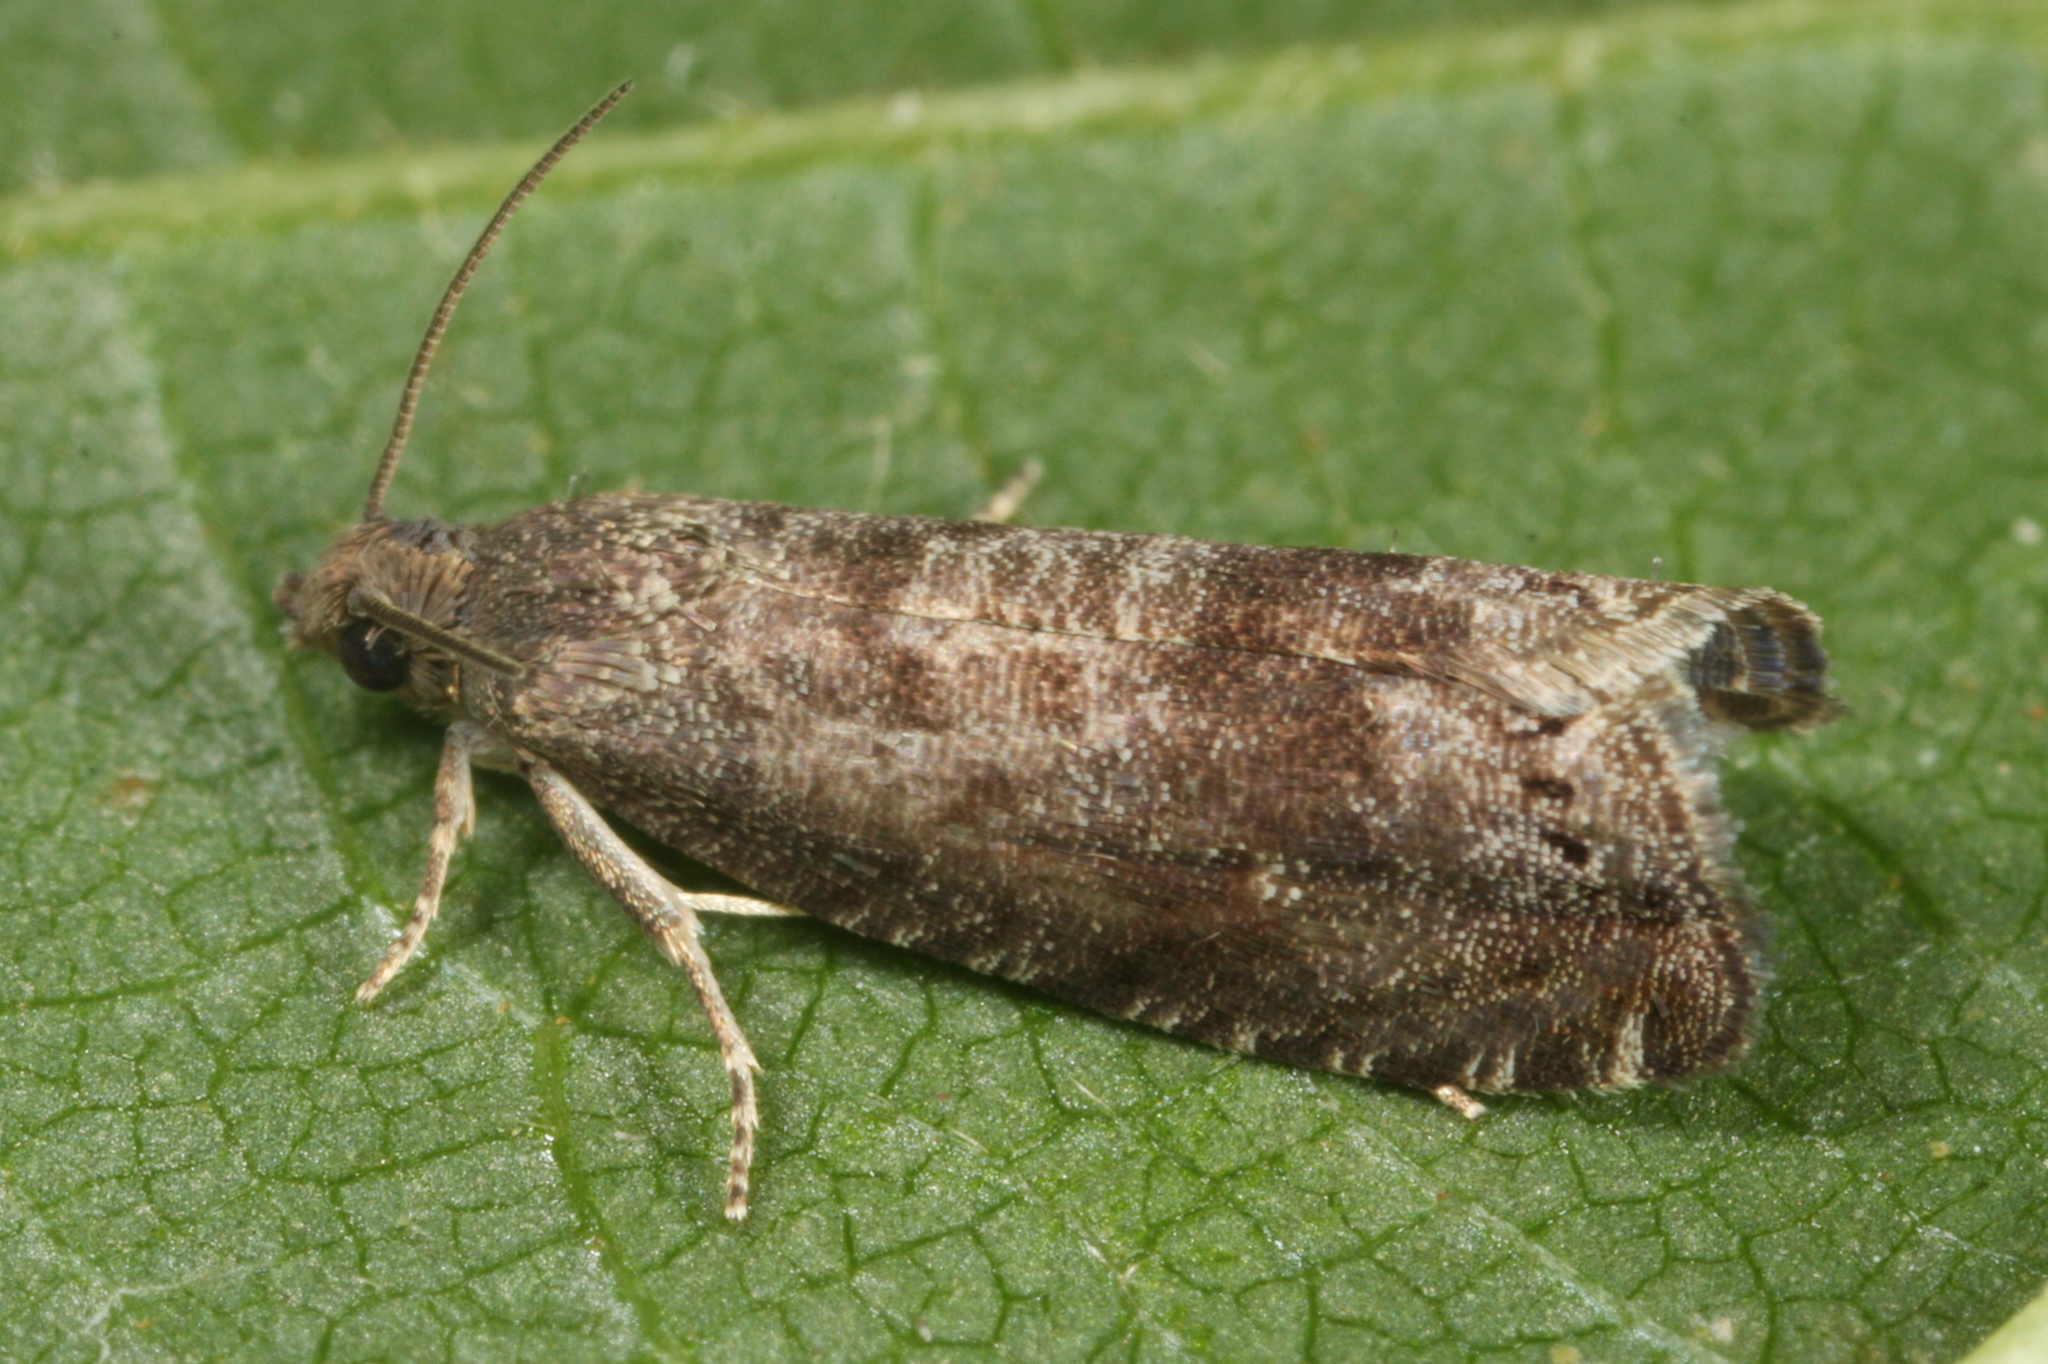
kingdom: Animalia
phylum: Arthropoda
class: Insecta
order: Lepidoptera
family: Noctuidae
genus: Aspila
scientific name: Aspila
